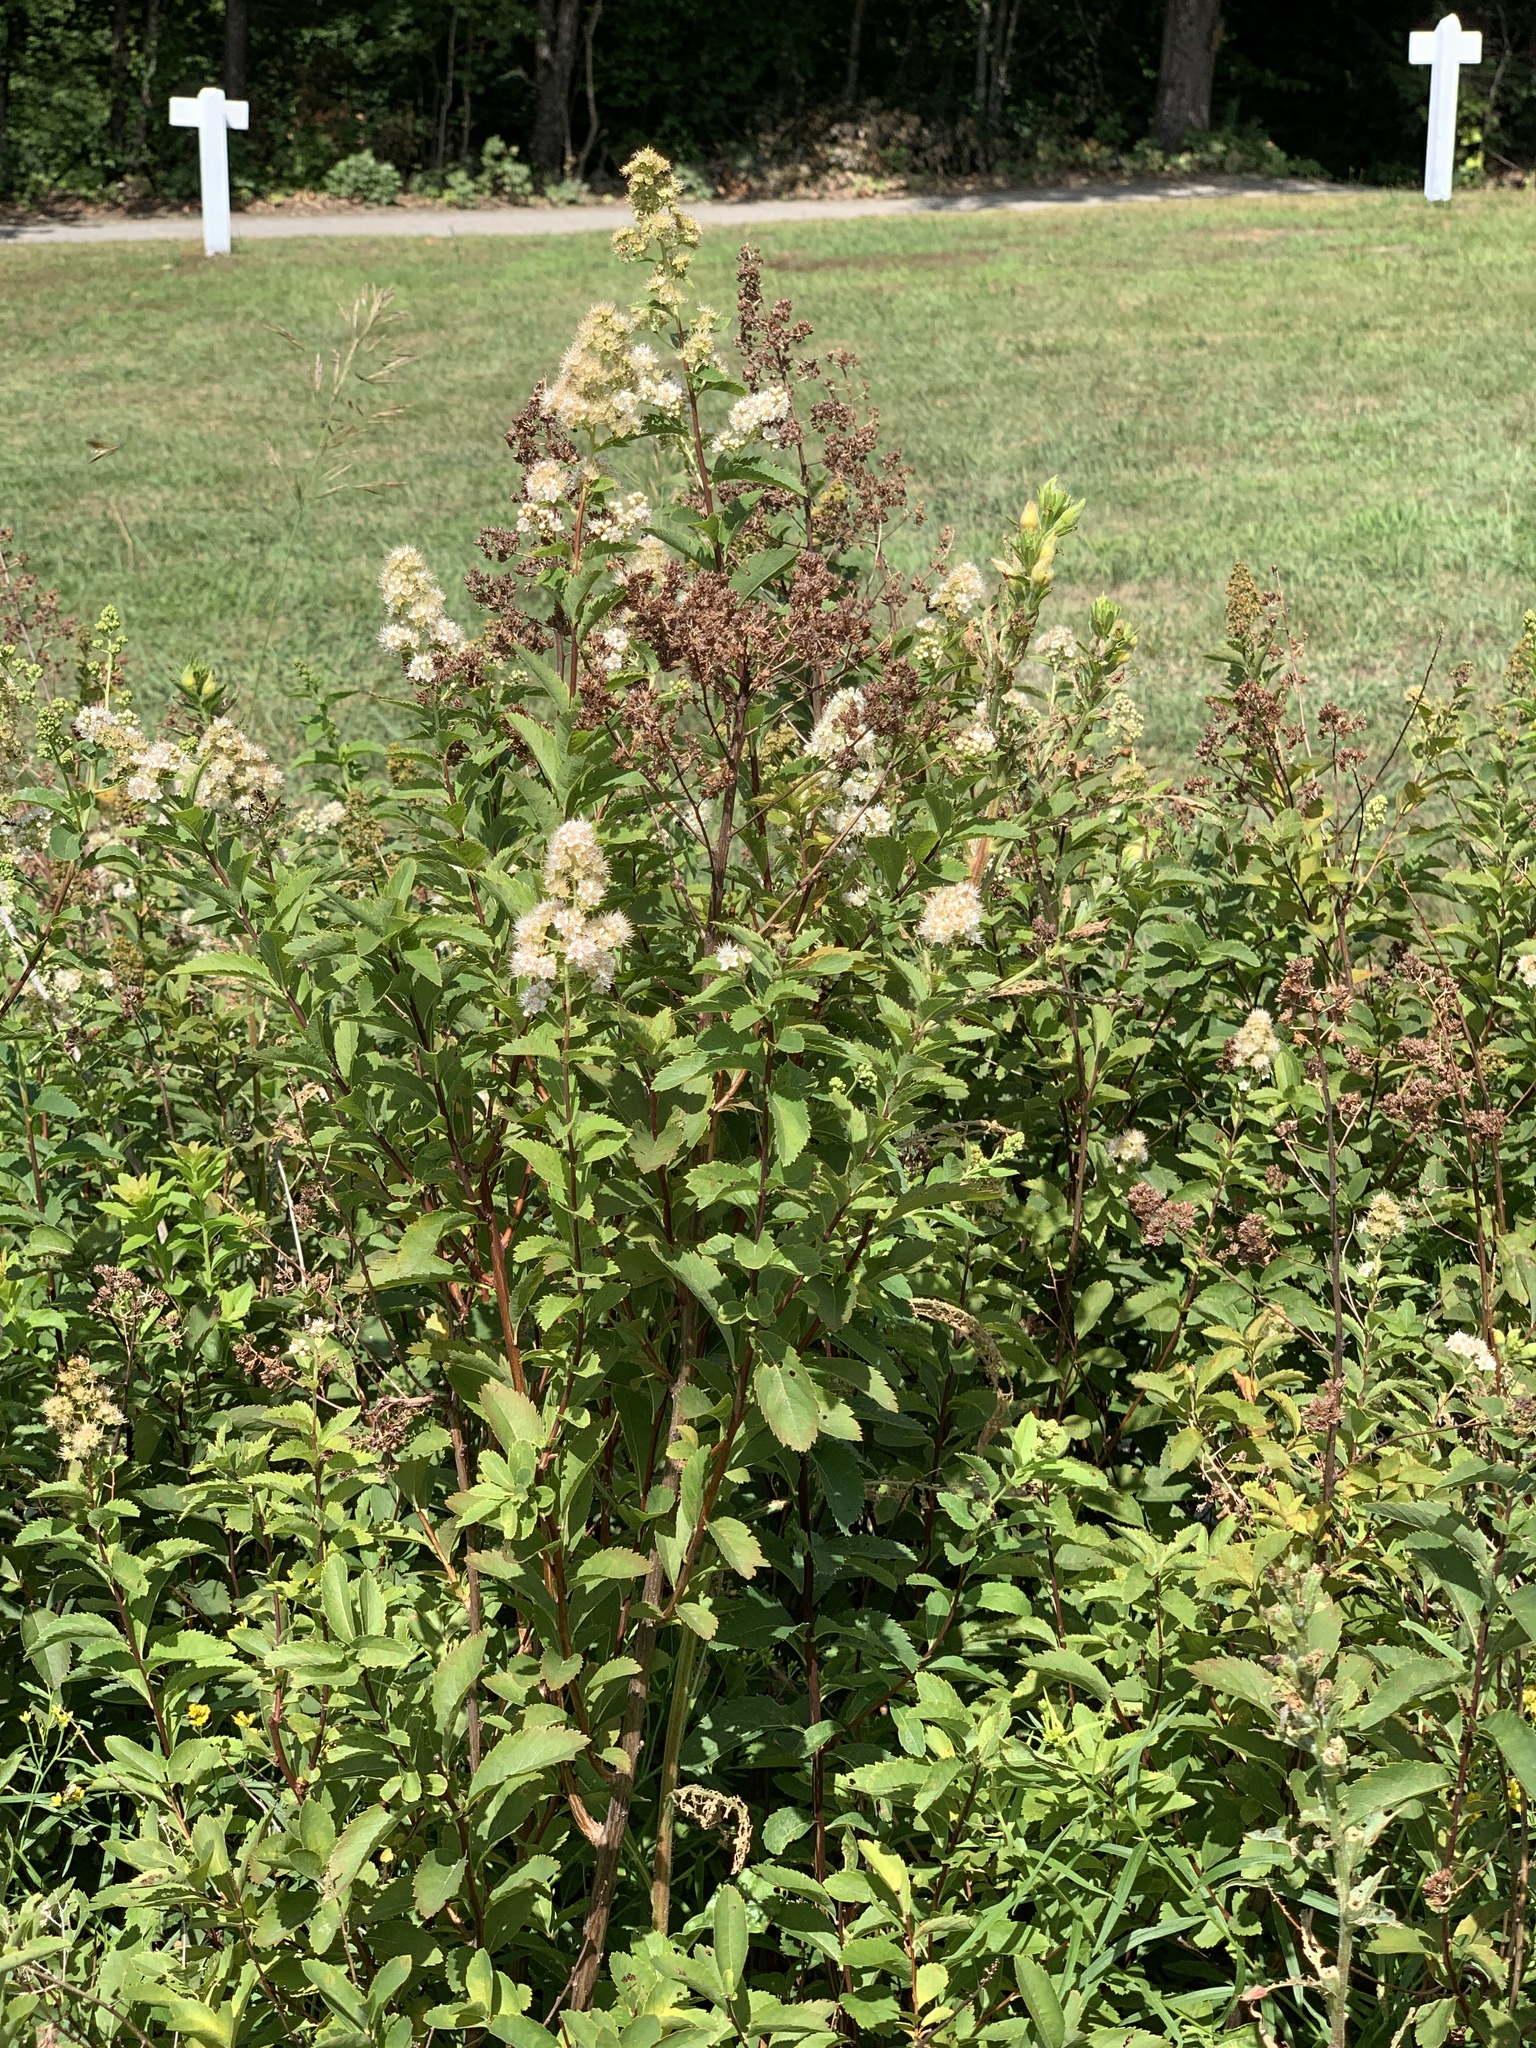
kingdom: Plantae
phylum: Tracheophyta
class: Magnoliopsida
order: Rosales
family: Rosaceae
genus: Spiraea
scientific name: Spiraea alba
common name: Pale bridewort
